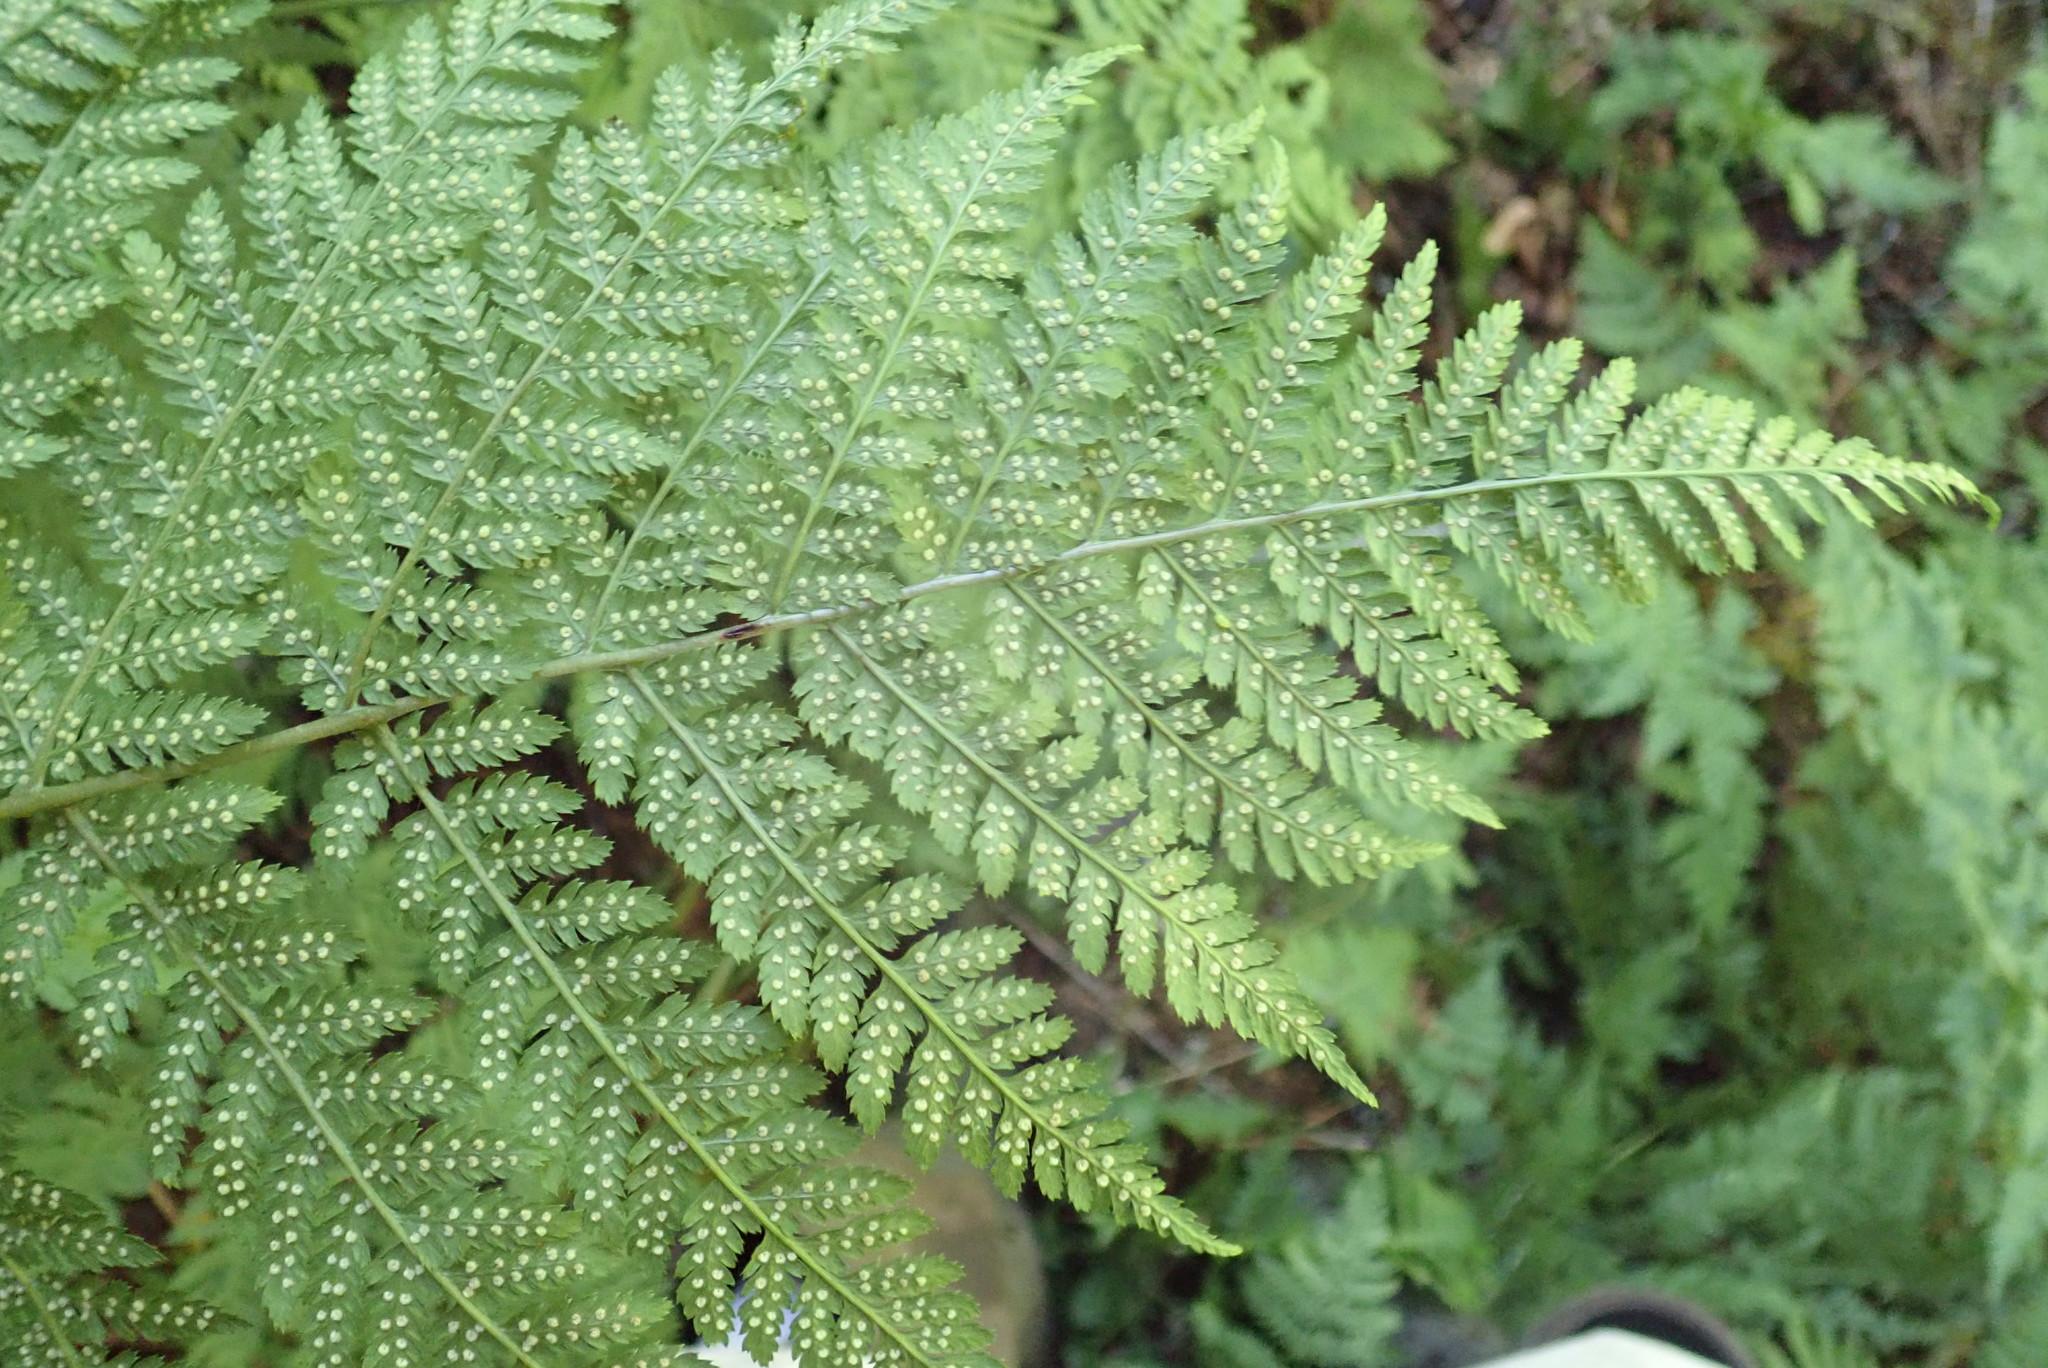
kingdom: Plantae
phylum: Tracheophyta
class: Polypodiopsida
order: Polypodiales
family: Dryopteridaceae
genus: Dryopteris
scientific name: Dryopteris expansa
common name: Northern buckler fern
